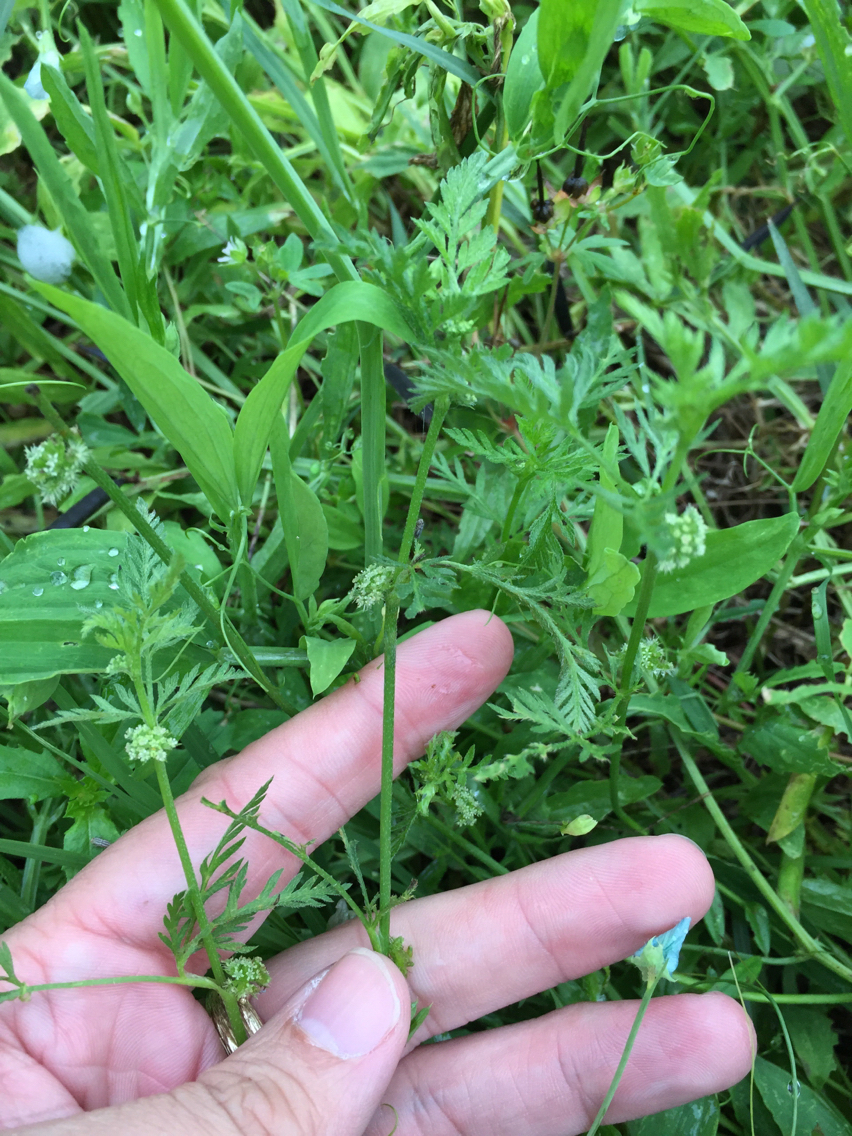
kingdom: Plantae
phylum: Tracheophyta
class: Magnoliopsida
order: Apiales
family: Apiaceae
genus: Torilis
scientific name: Torilis nodosa
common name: Knotted hedge-parsley
